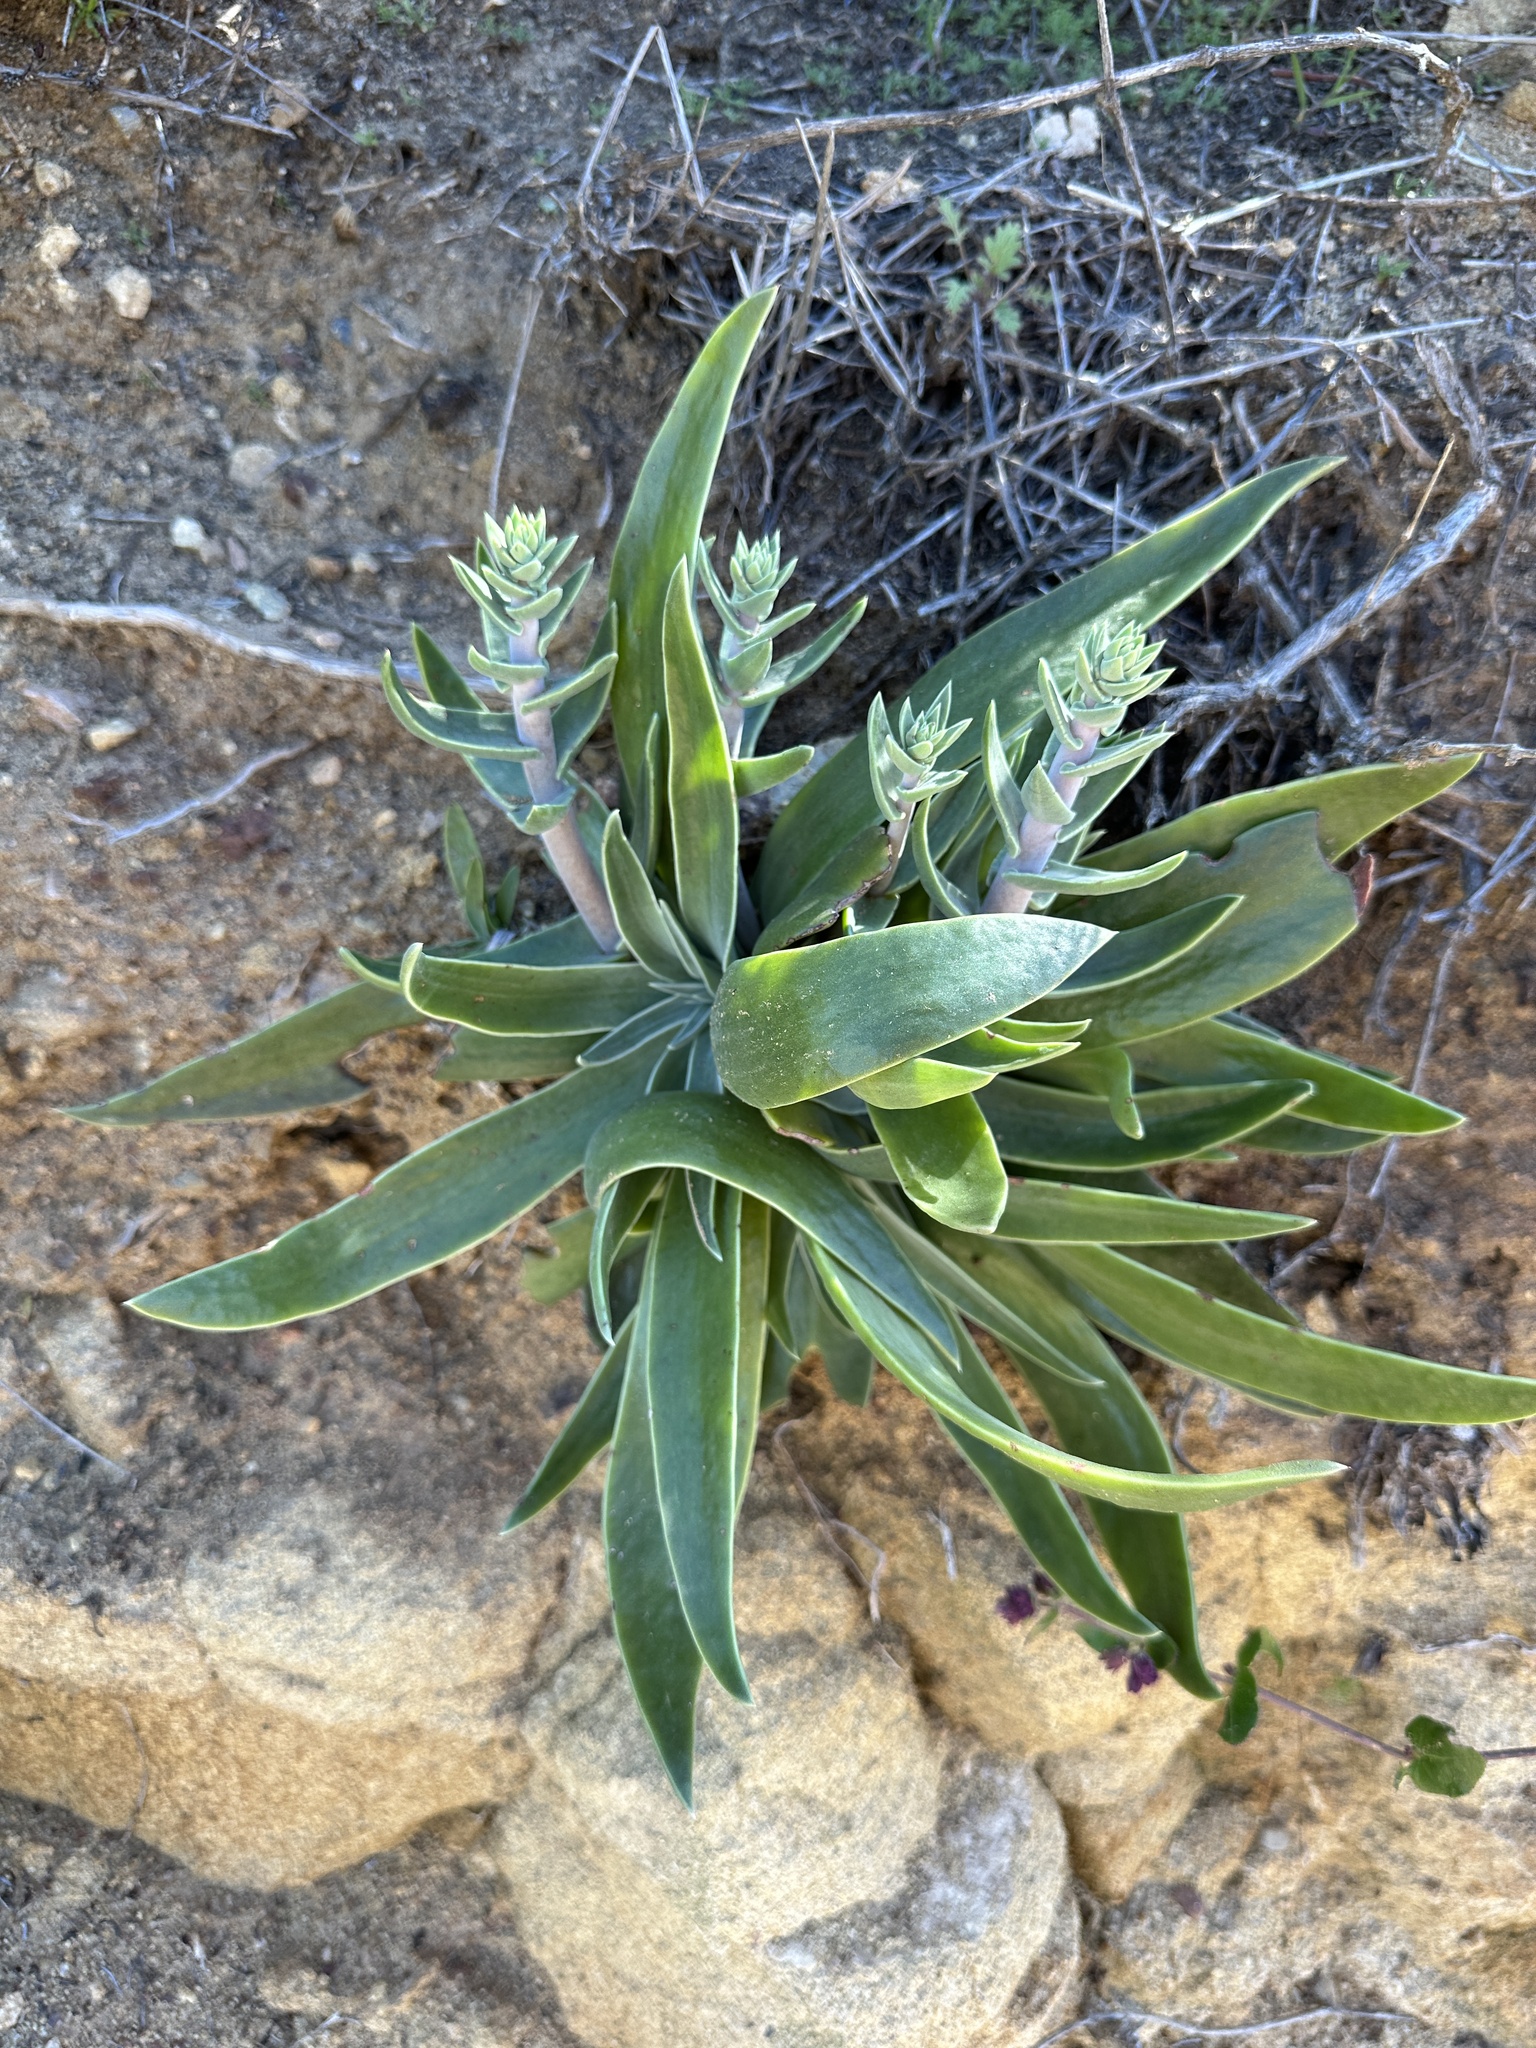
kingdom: Plantae
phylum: Tracheophyta
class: Magnoliopsida
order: Saxifragales
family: Crassulaceae
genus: Dudleya
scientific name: Dudleya lanceolata
